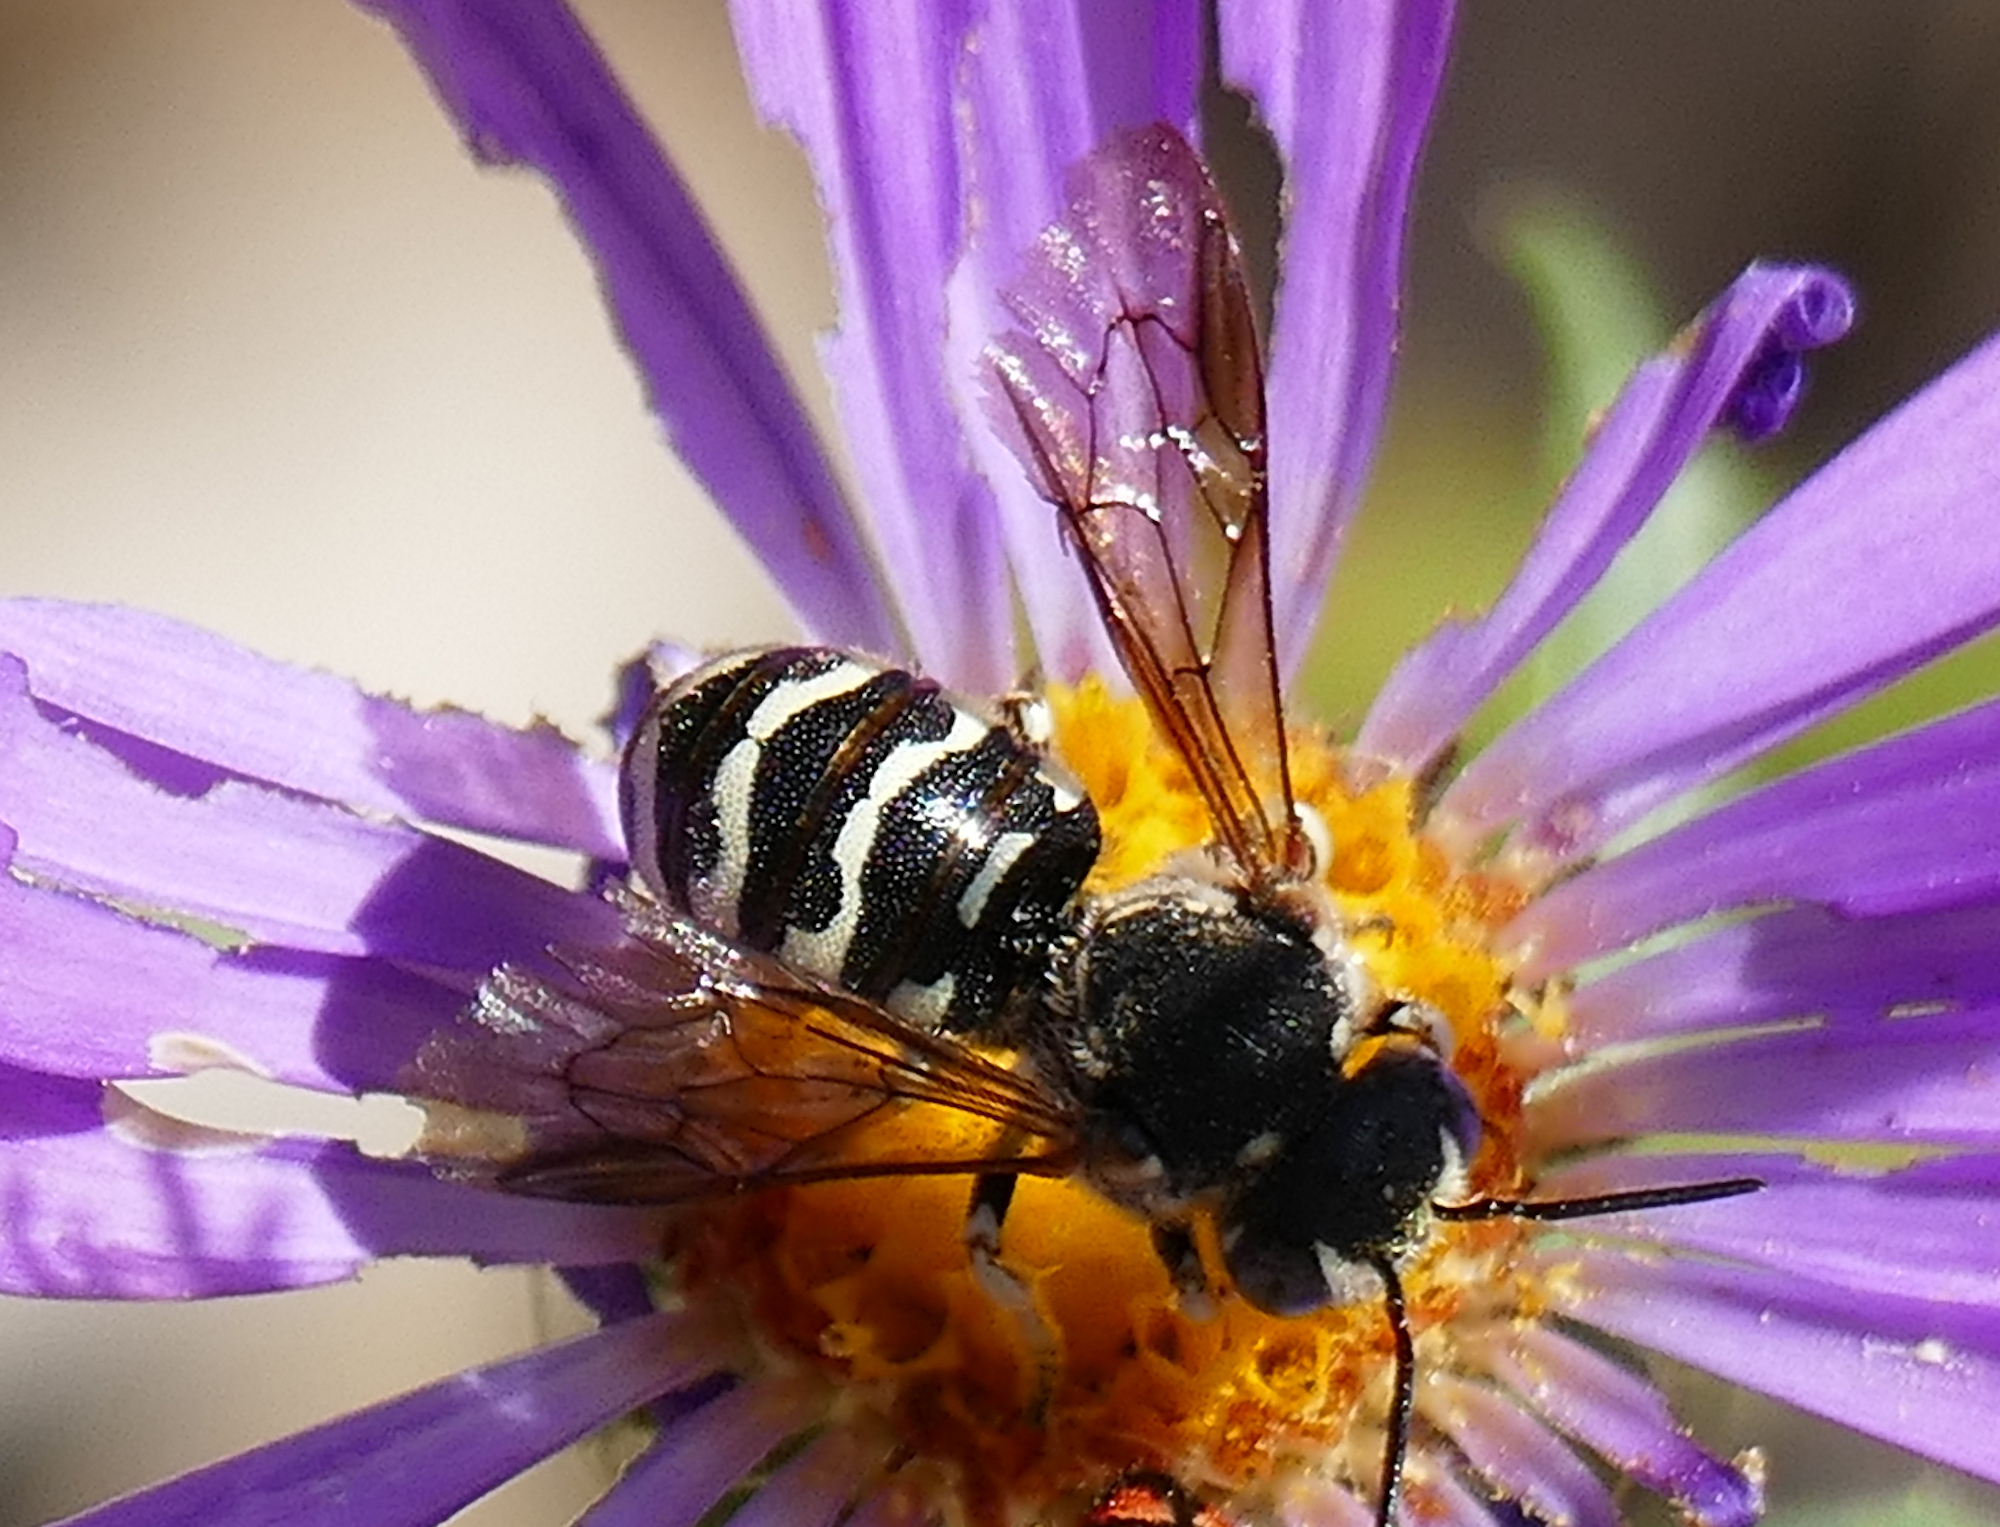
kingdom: Animalia
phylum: Arthropoda
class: Insecta
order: Hymenoptera
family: Megachilidae
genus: Dianthidium
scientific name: Dianthidium
